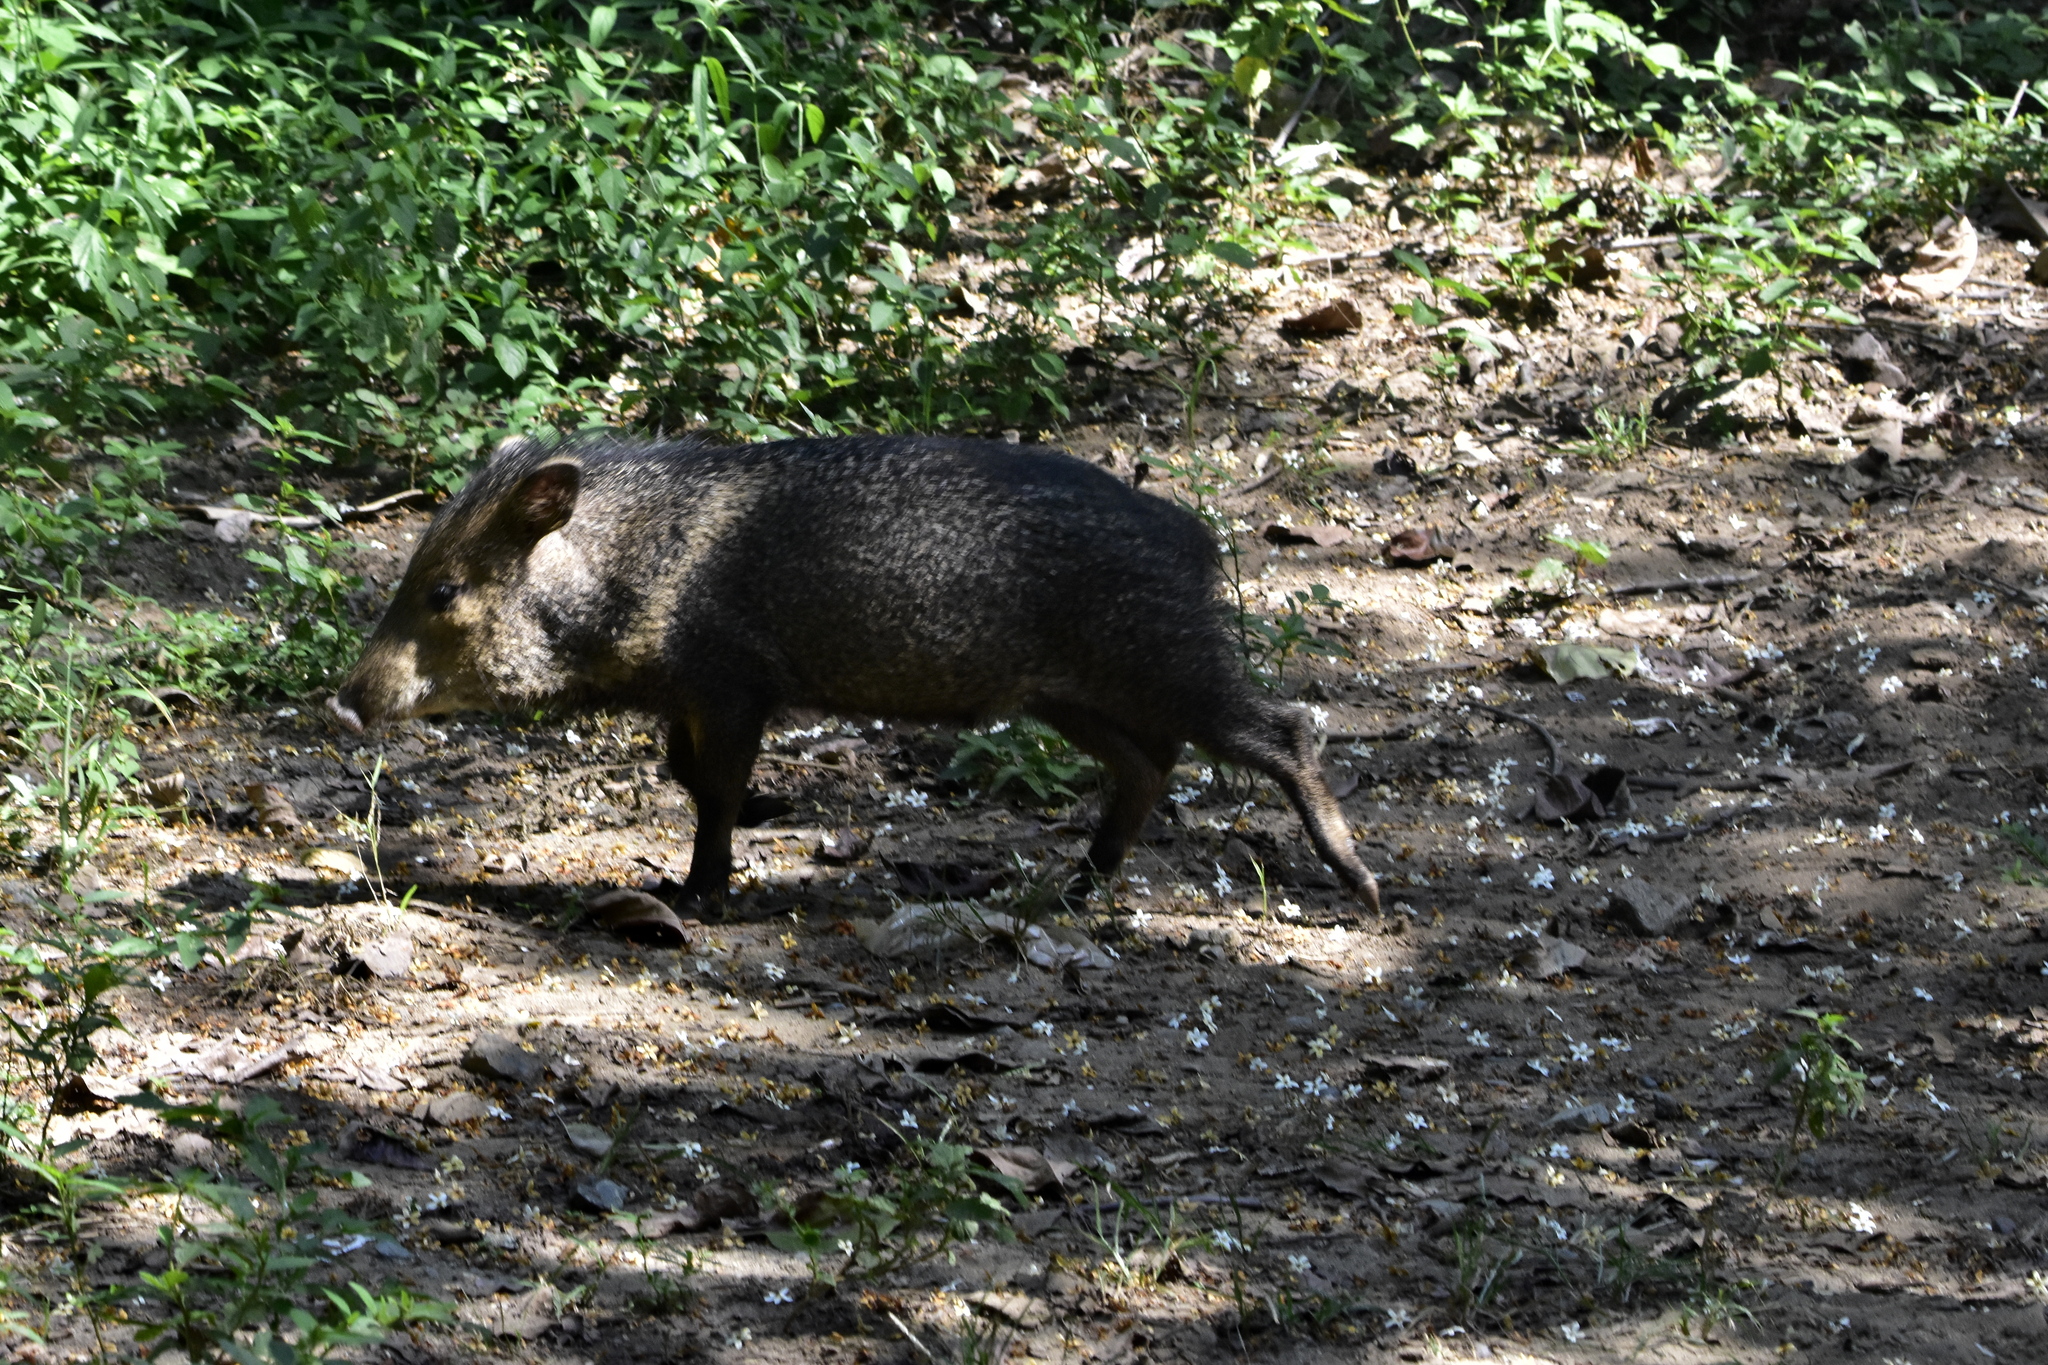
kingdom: Animalia
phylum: Chordata
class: Mammalia
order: Artiodactyla
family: Tayassuidae
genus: Pecari
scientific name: Pecari tajacu
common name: Collared peccary
